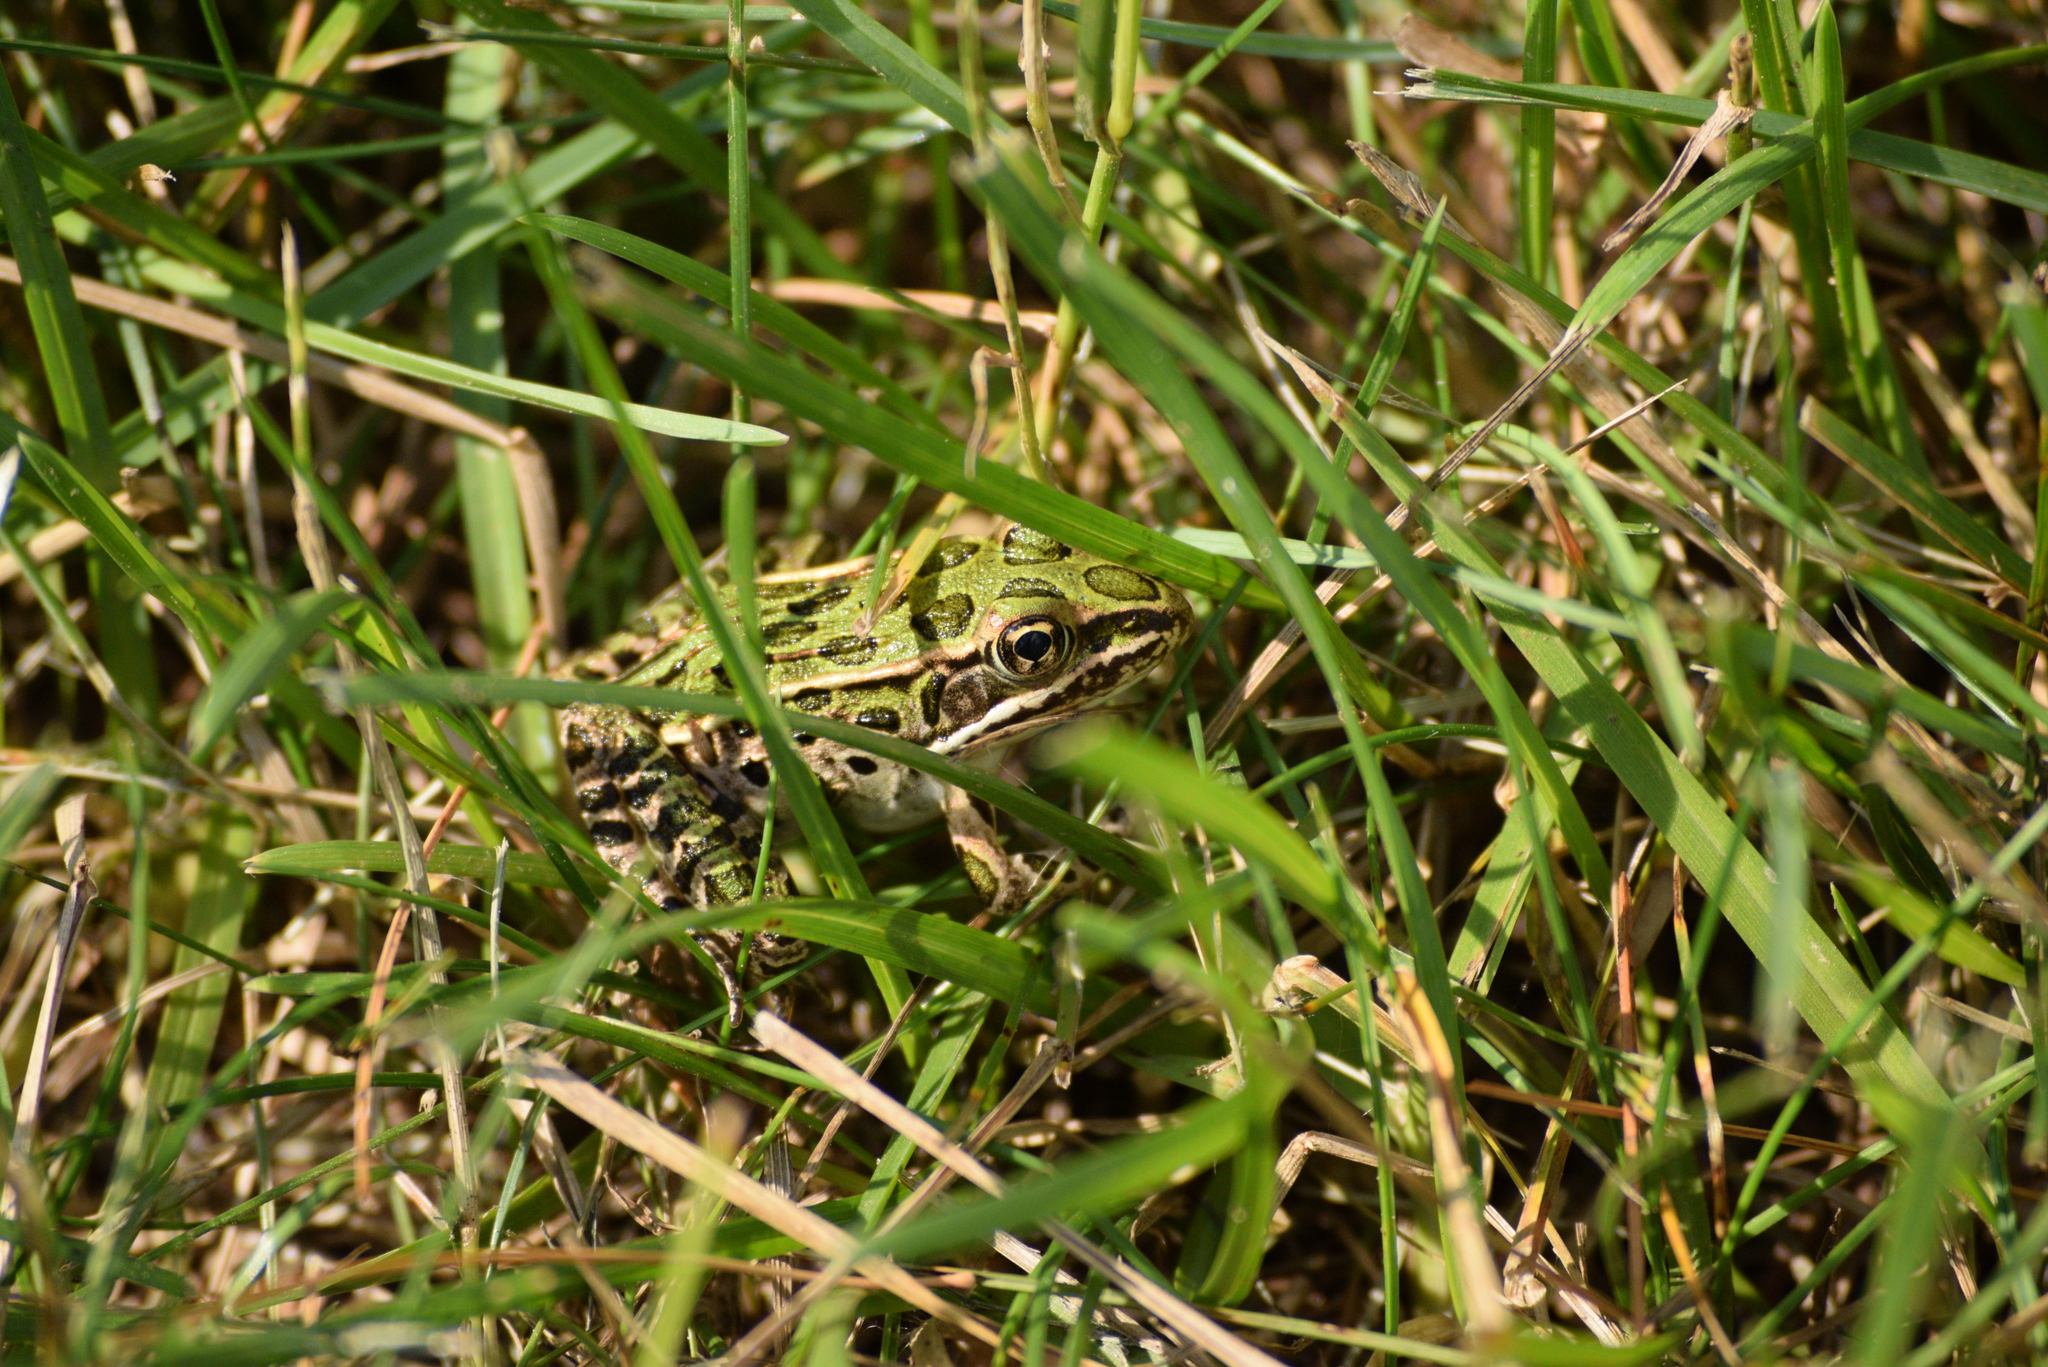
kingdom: Animalia
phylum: Chordata
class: Amphibia
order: Anura
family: Ranidae
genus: Lithobates
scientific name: Lithobates pipiens
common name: Northern leopard frog
